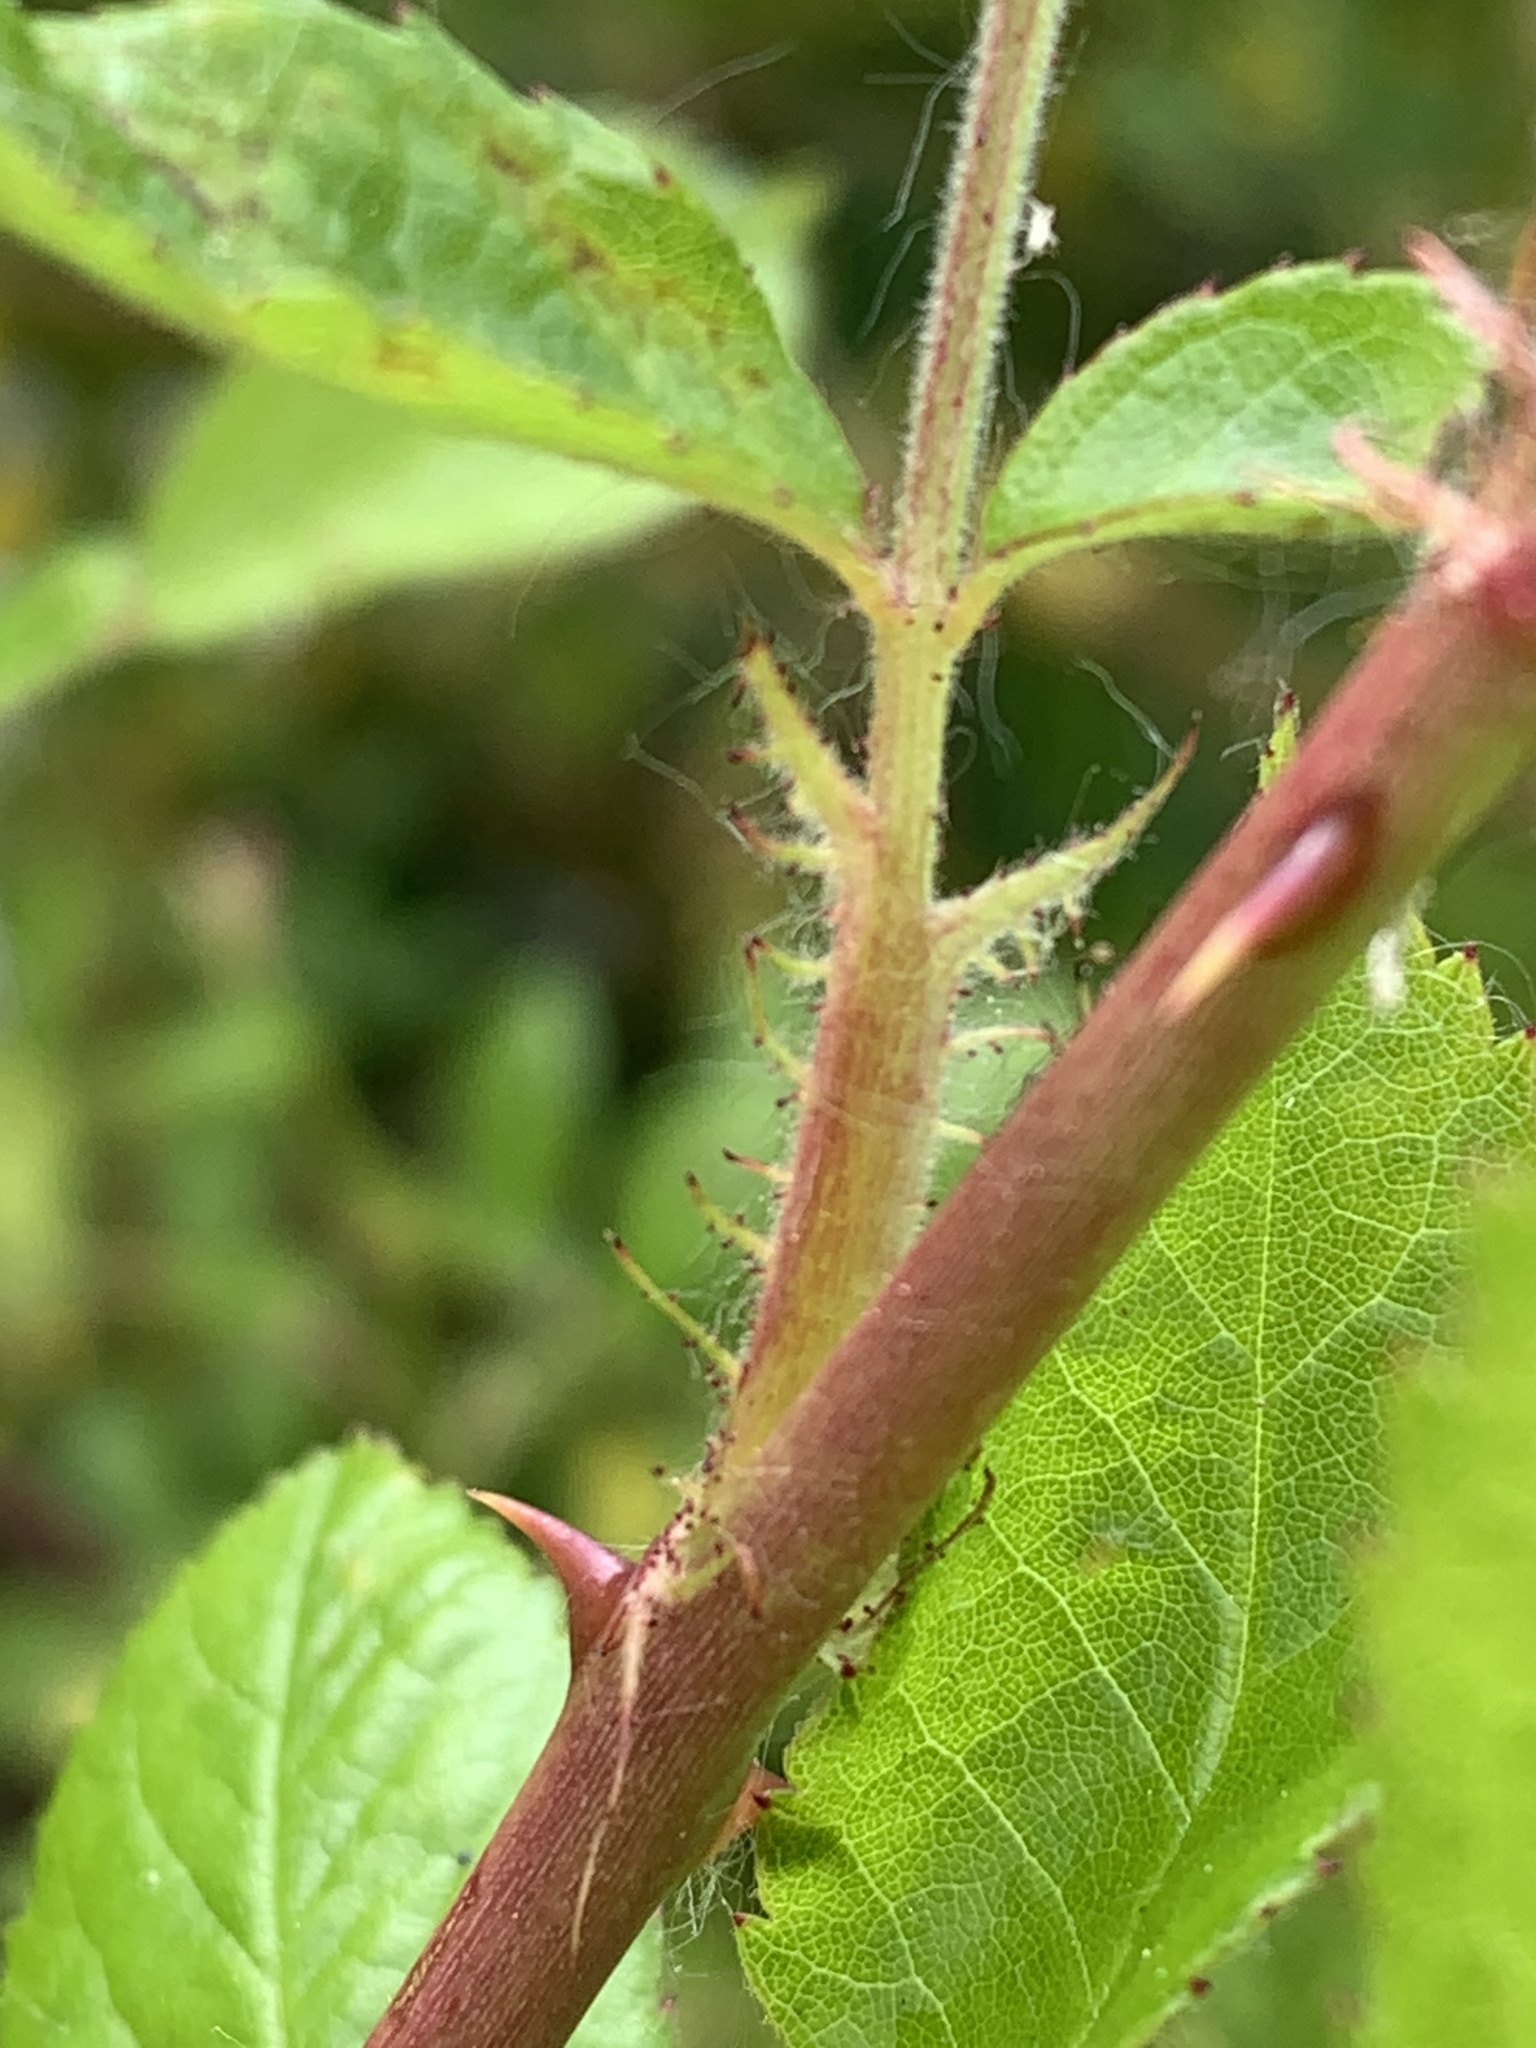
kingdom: Plantae
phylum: Tracheophyta
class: Magnoliopsida
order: Rosales
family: Rosaceae
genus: Rosa
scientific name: Rosa multiflora
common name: Multiflora rose
